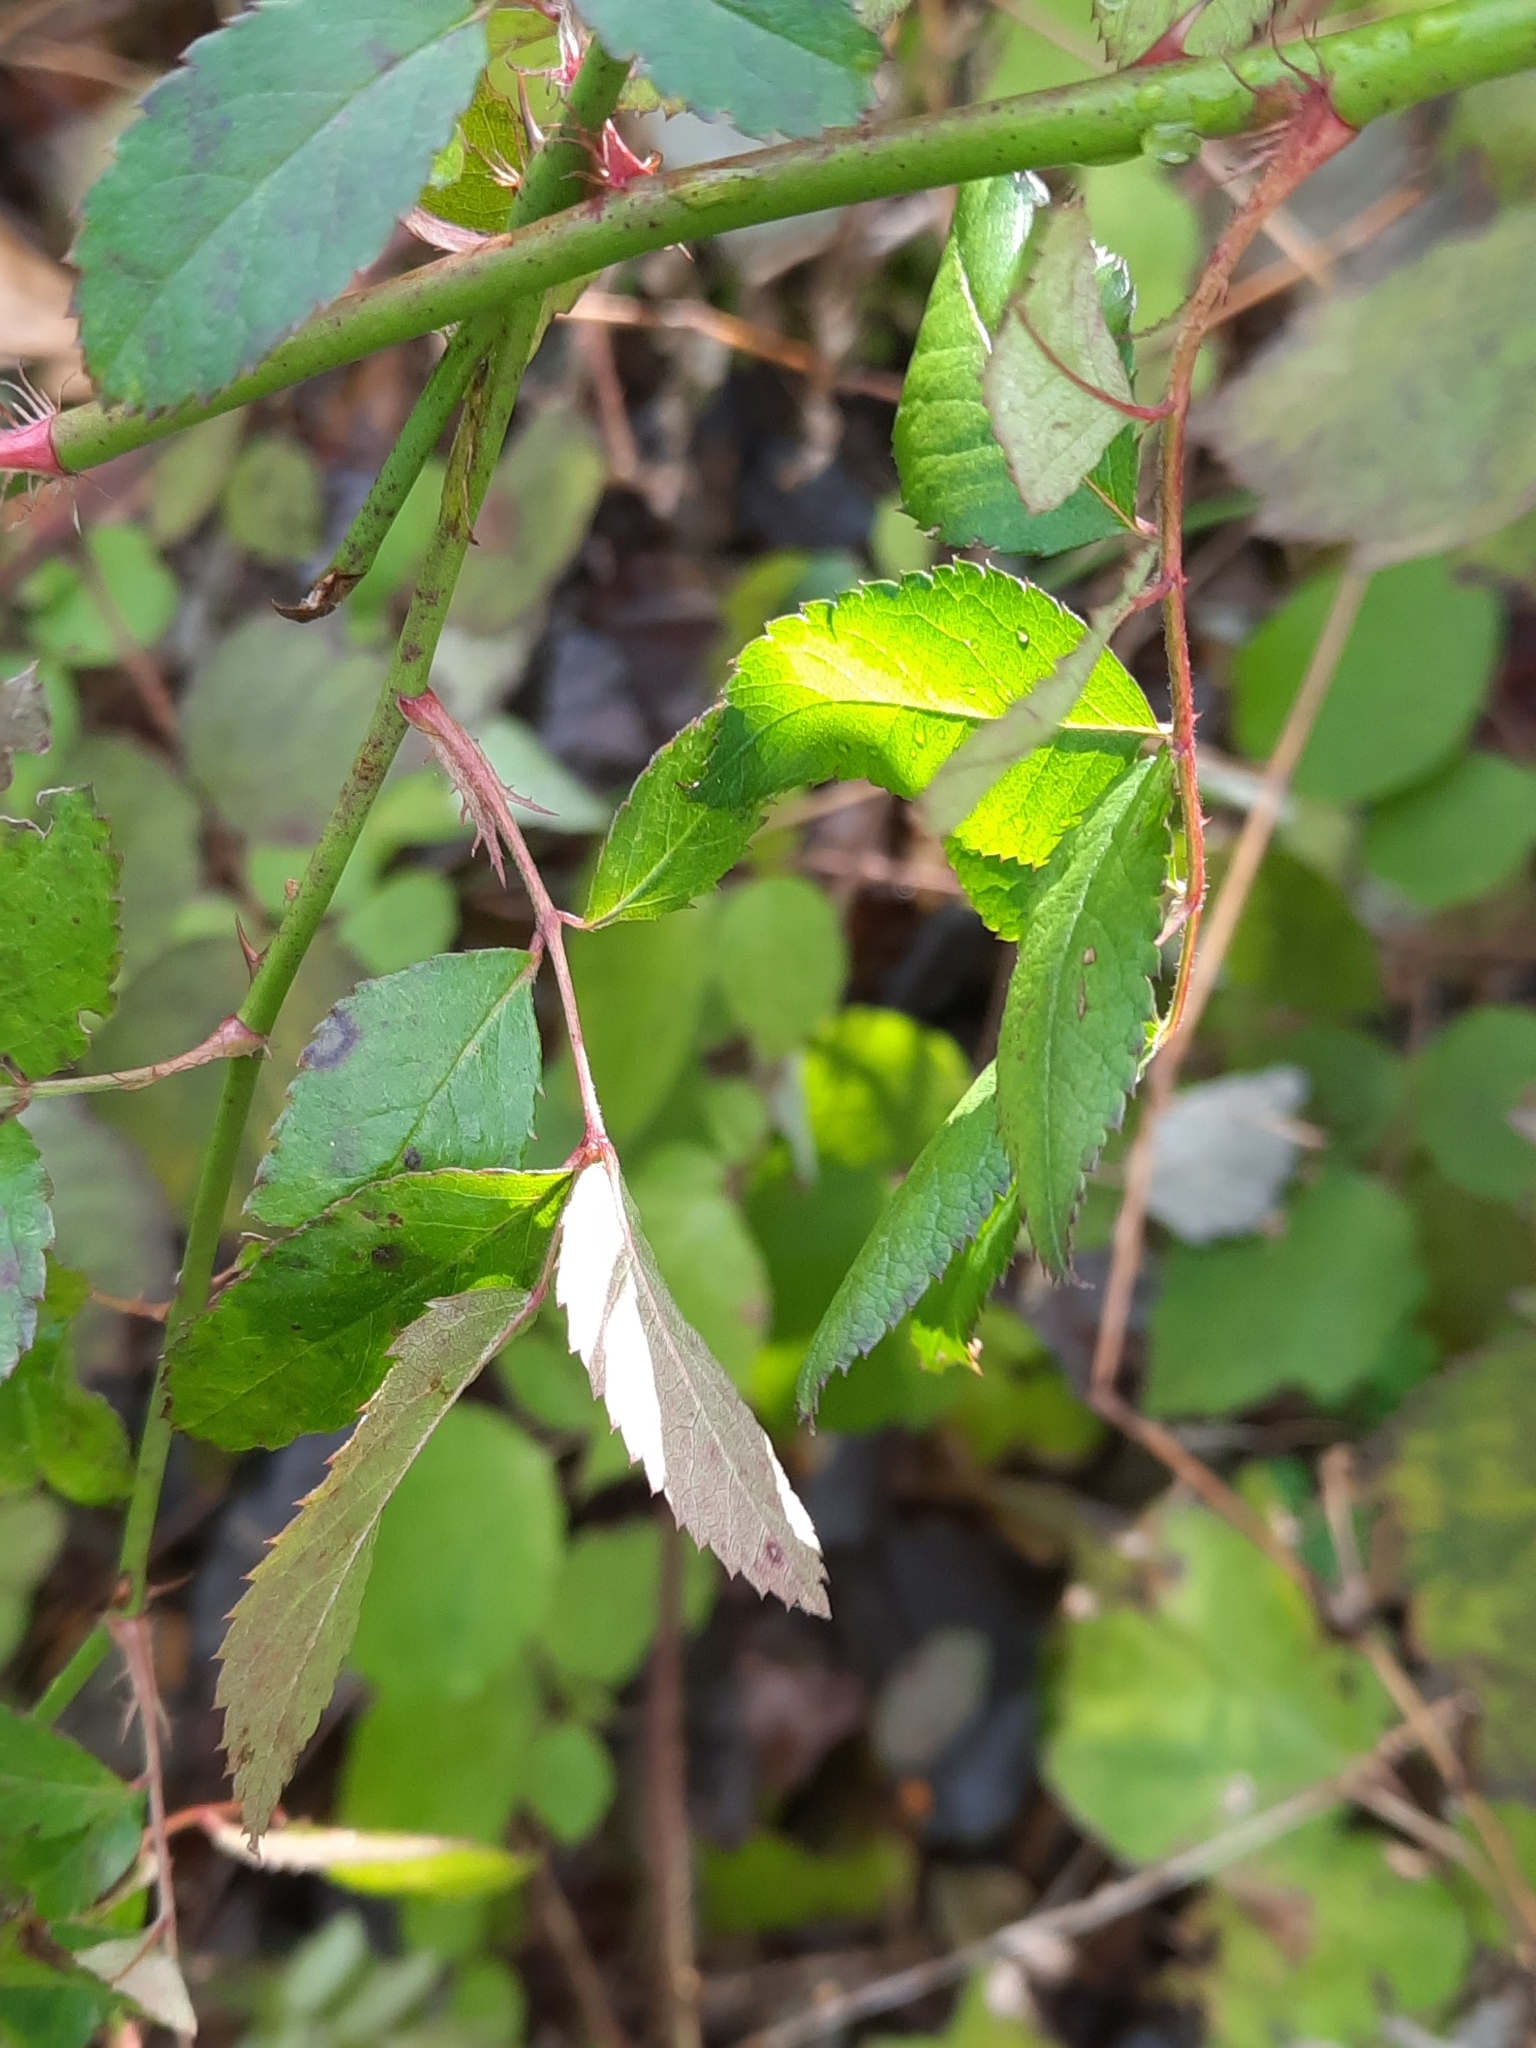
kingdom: Plantae
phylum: Tracheophyta
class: Magnoliopsida
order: Rosales
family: Rosaceae
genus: Rosa
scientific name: Rosa multiflora
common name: Multiflora rose
